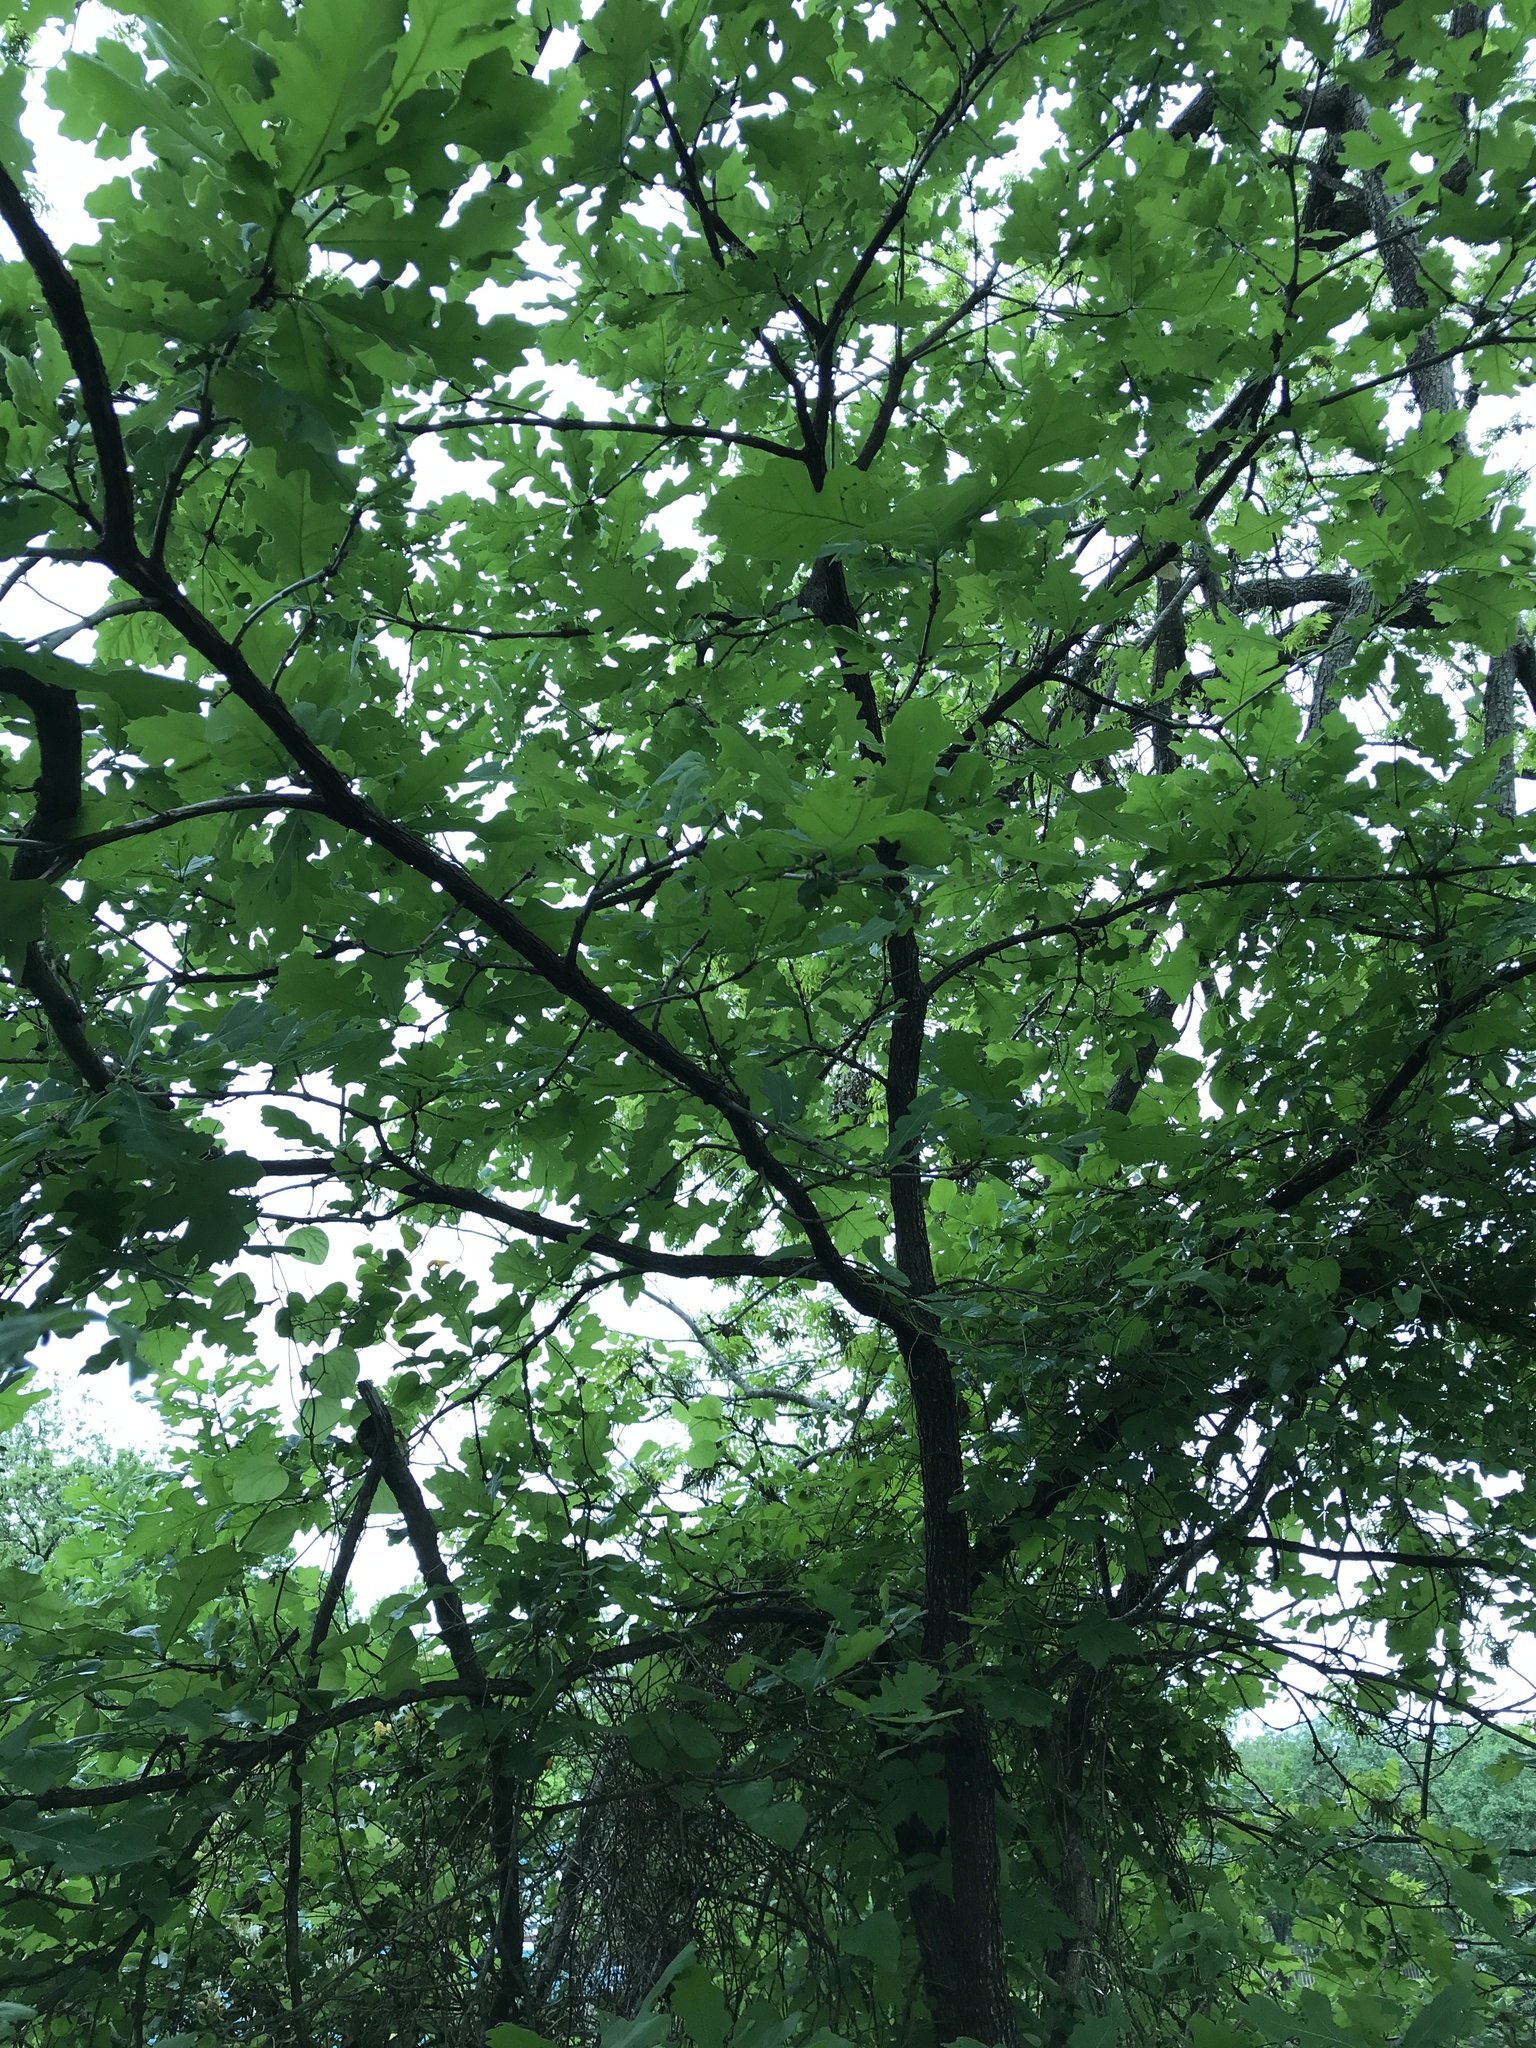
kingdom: Plantae
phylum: Tracheophyta
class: Magnoliopsida
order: Fagales
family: Fagaceae
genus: Quercus
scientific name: Quercus macrocarpa
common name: Bur oak
